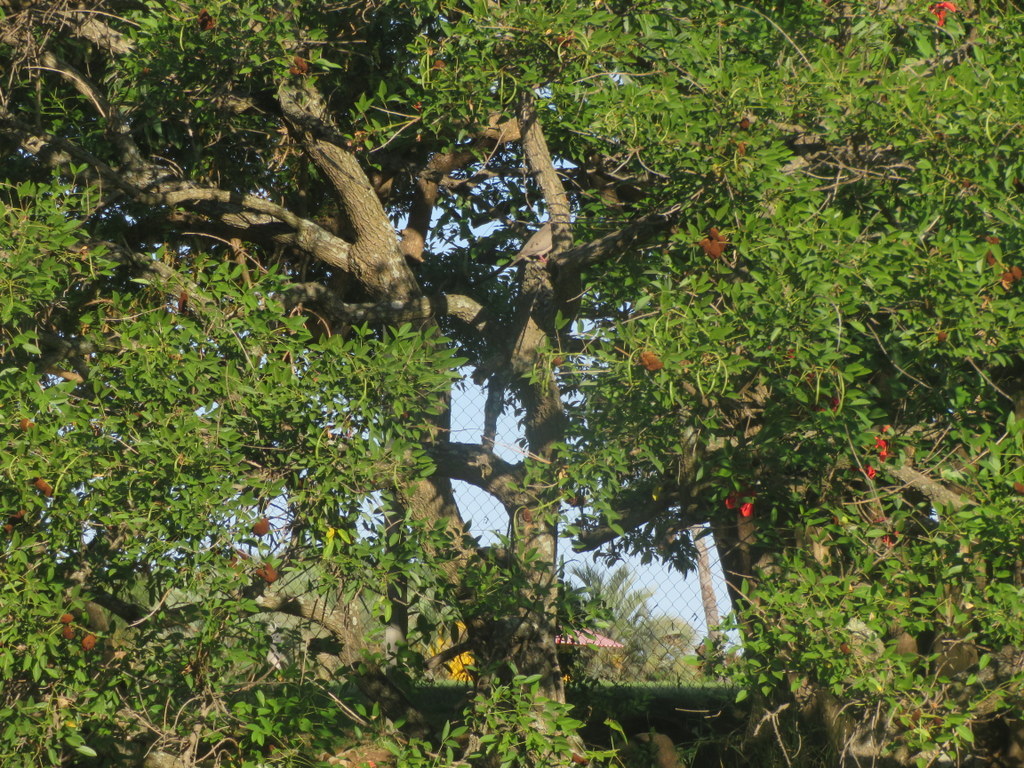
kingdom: Plantae
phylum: Tracheophyta
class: Magnoliopsida
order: Fabales
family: Fabaceae
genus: Erythrina
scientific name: Erythrina crista-galli
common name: Cockspur coral tree
